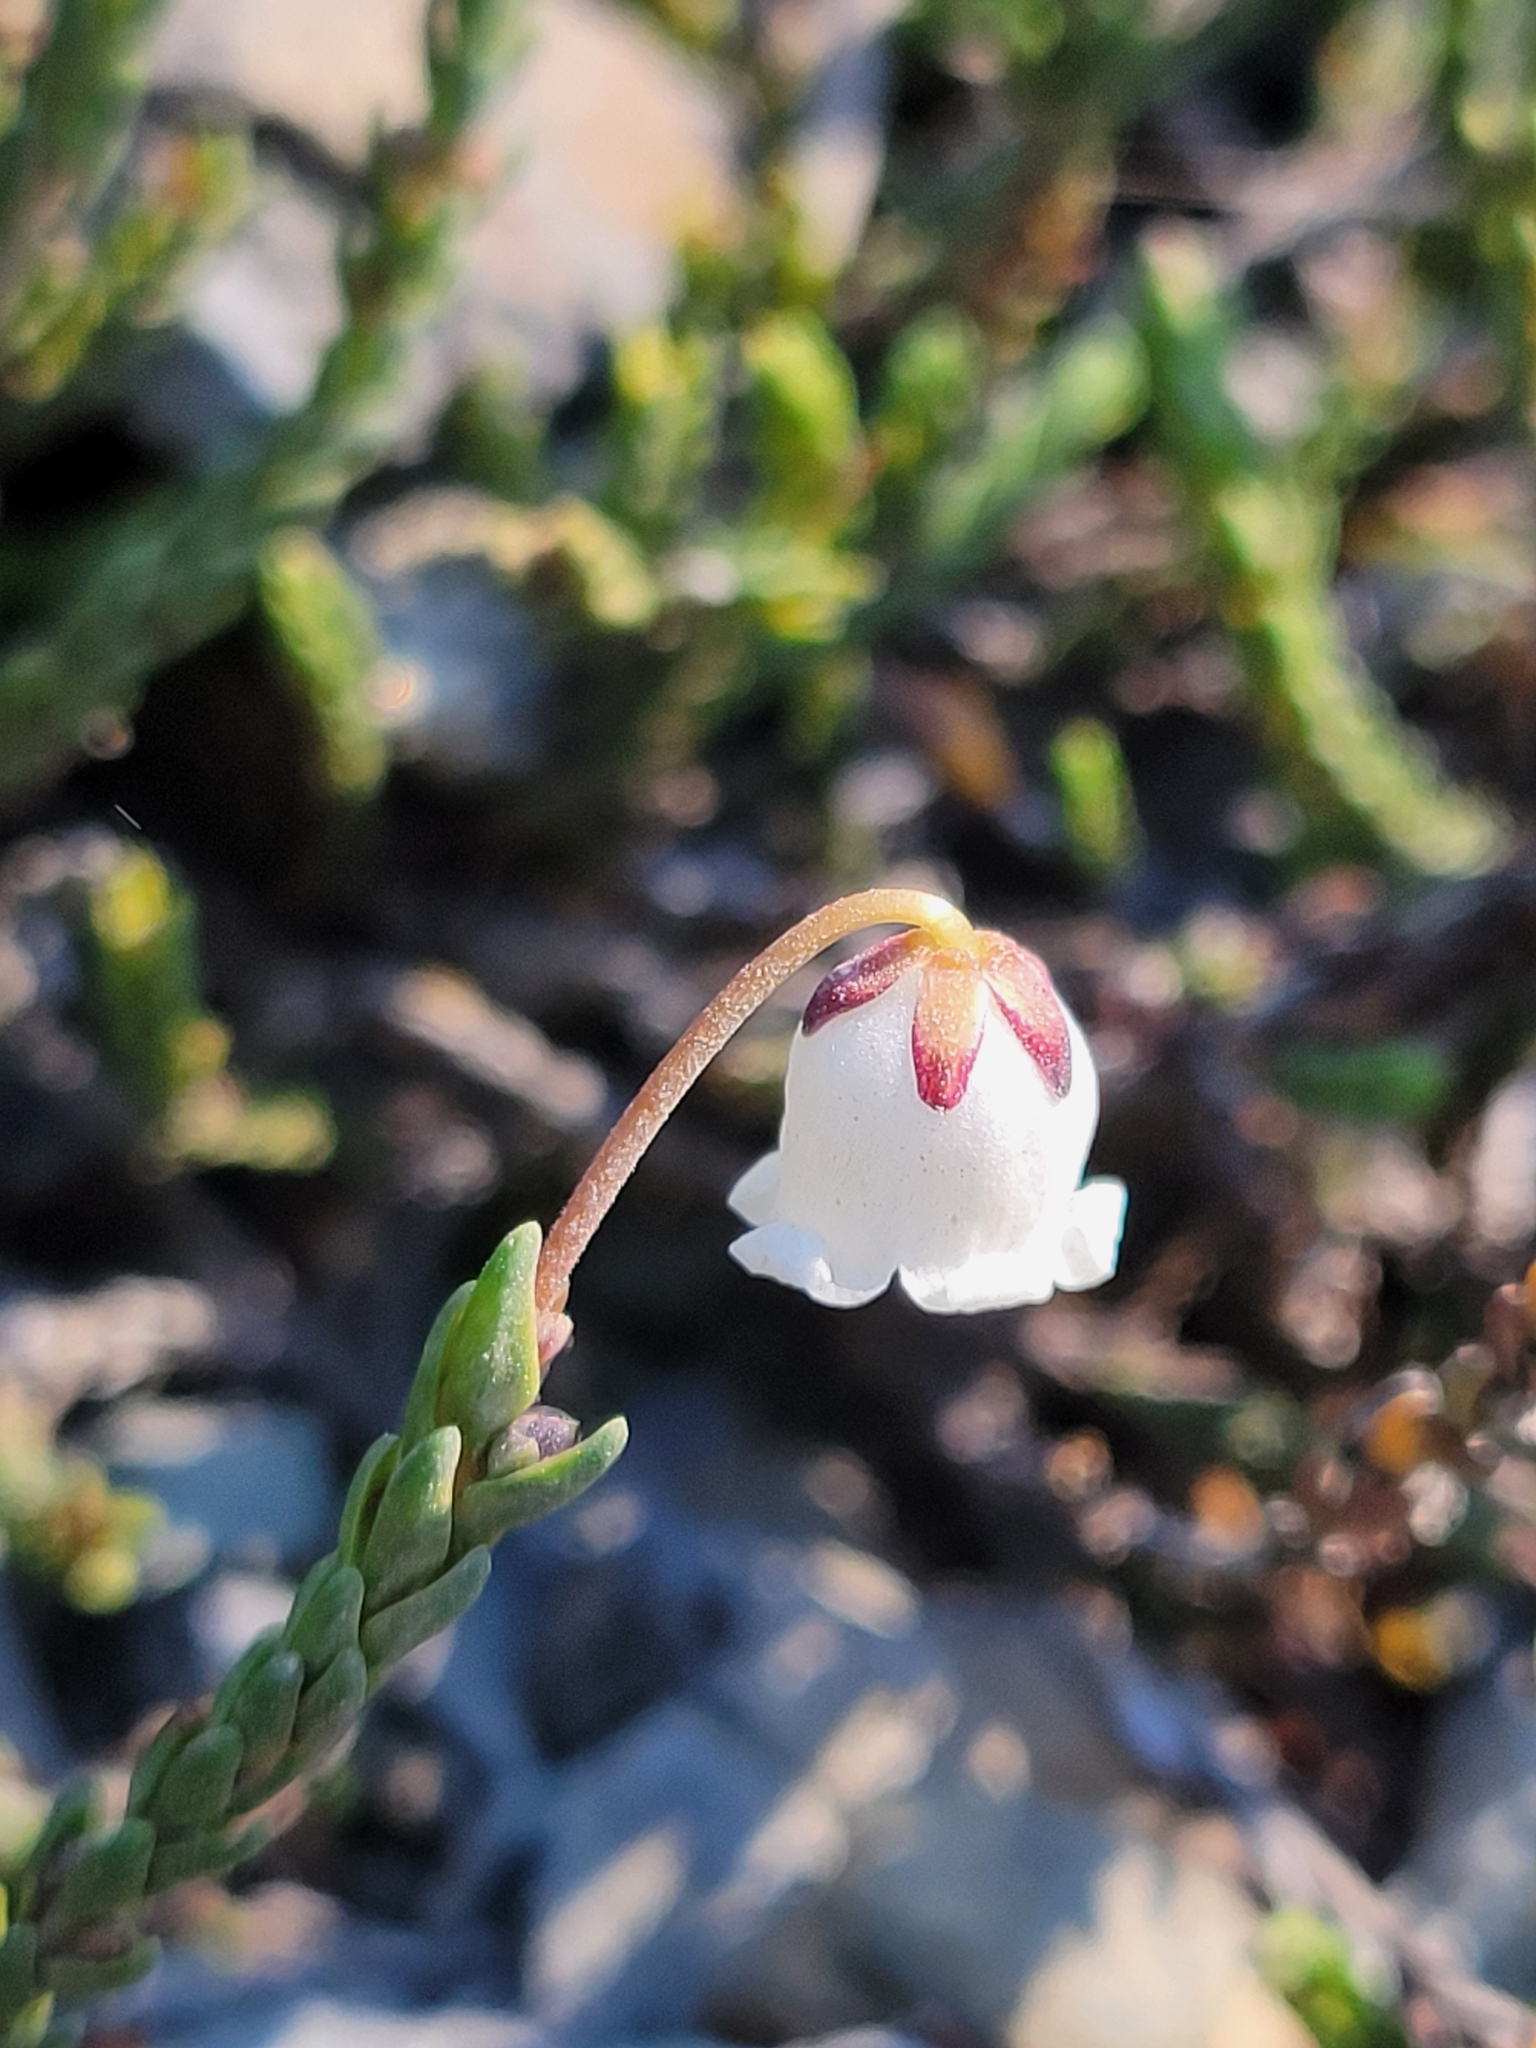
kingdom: Plantae
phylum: Tracheophyta
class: Magnoliopsida
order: Ericales
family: Ericaceae
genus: Cassiope
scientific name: Cassiope mertensiana
